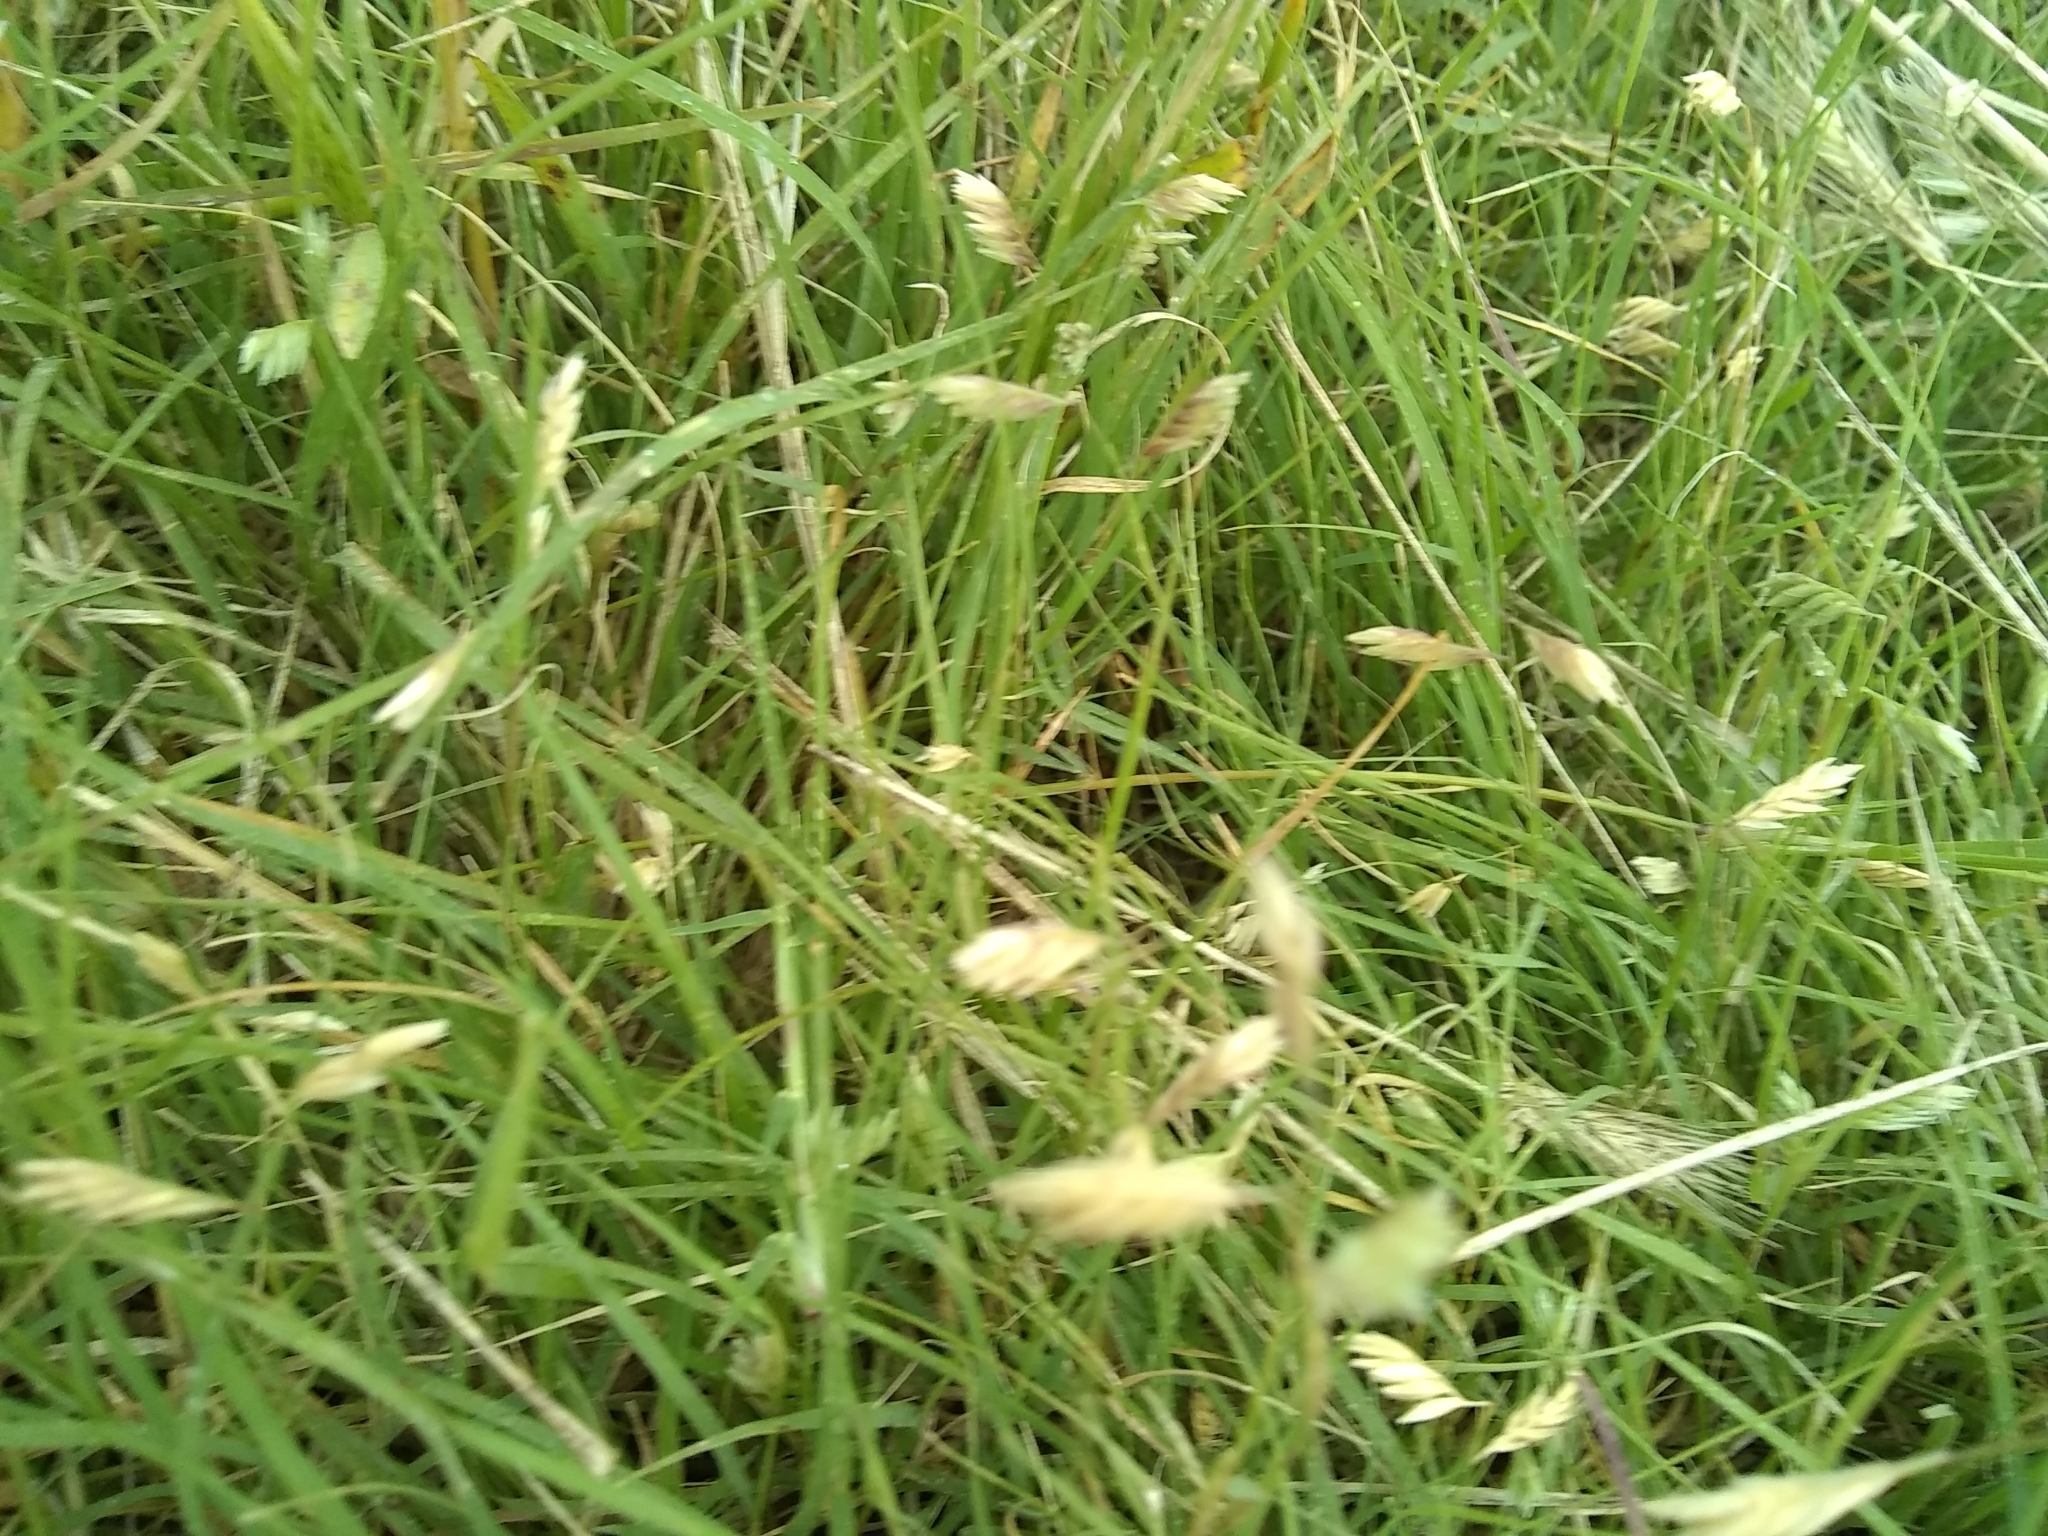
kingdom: Plantae
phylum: Tracheophyta
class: Liliopsida
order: Poales
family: Poaceae
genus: Bouteloua
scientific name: Bouteloua dactyloides
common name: Buffalo grass
